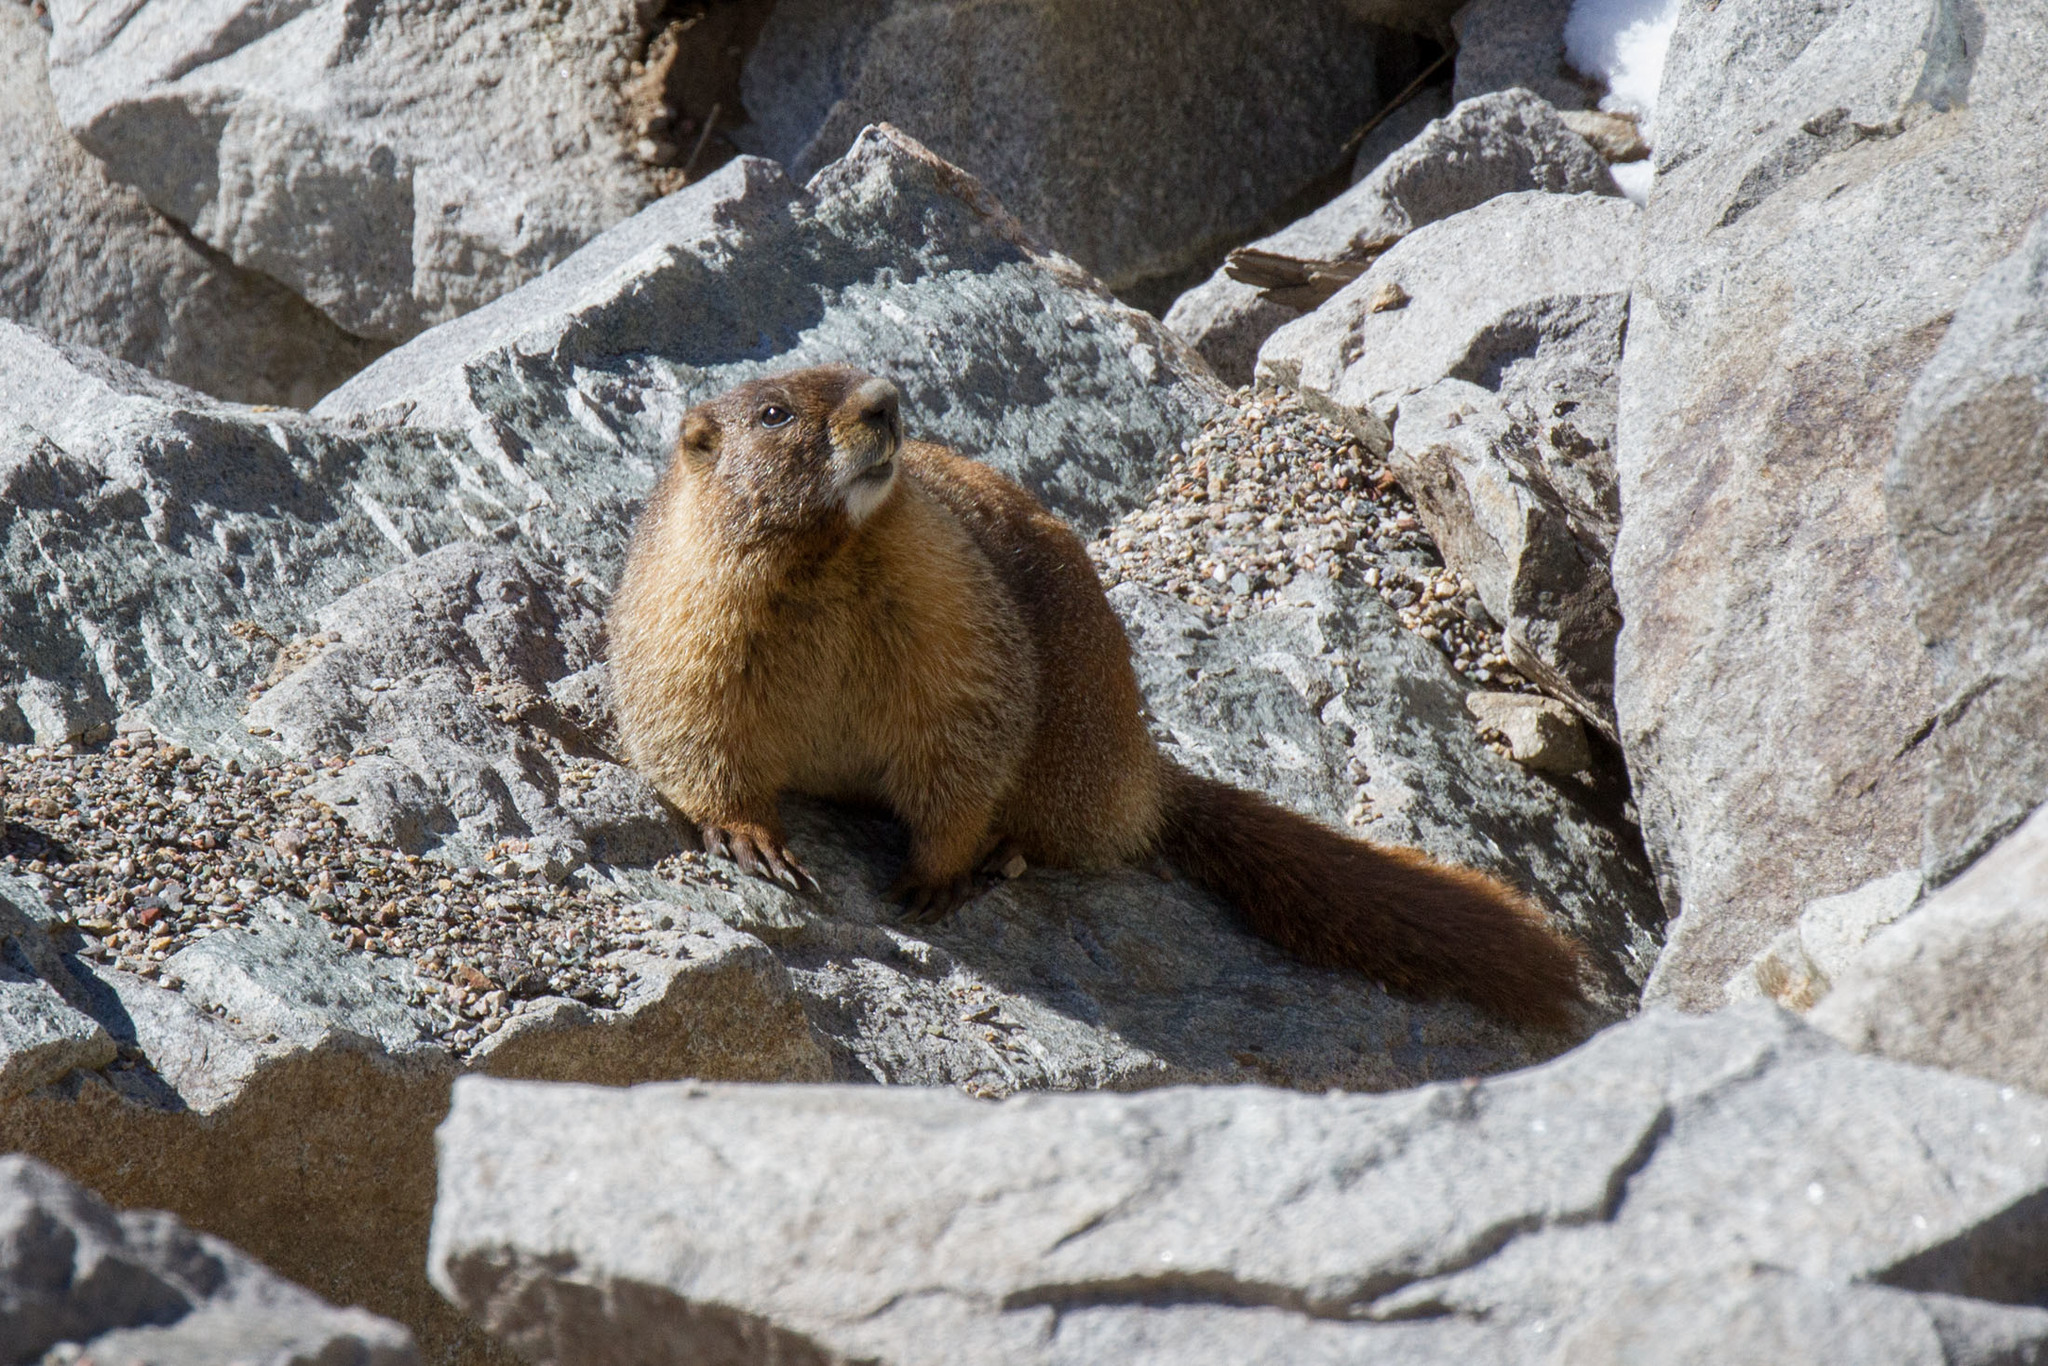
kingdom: Animalia
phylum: Chordata
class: Mammalia
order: Rodentia
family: Sciuridae
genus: Marmota
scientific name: Marmota flaviventris
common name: Yellow-bellied marmot
